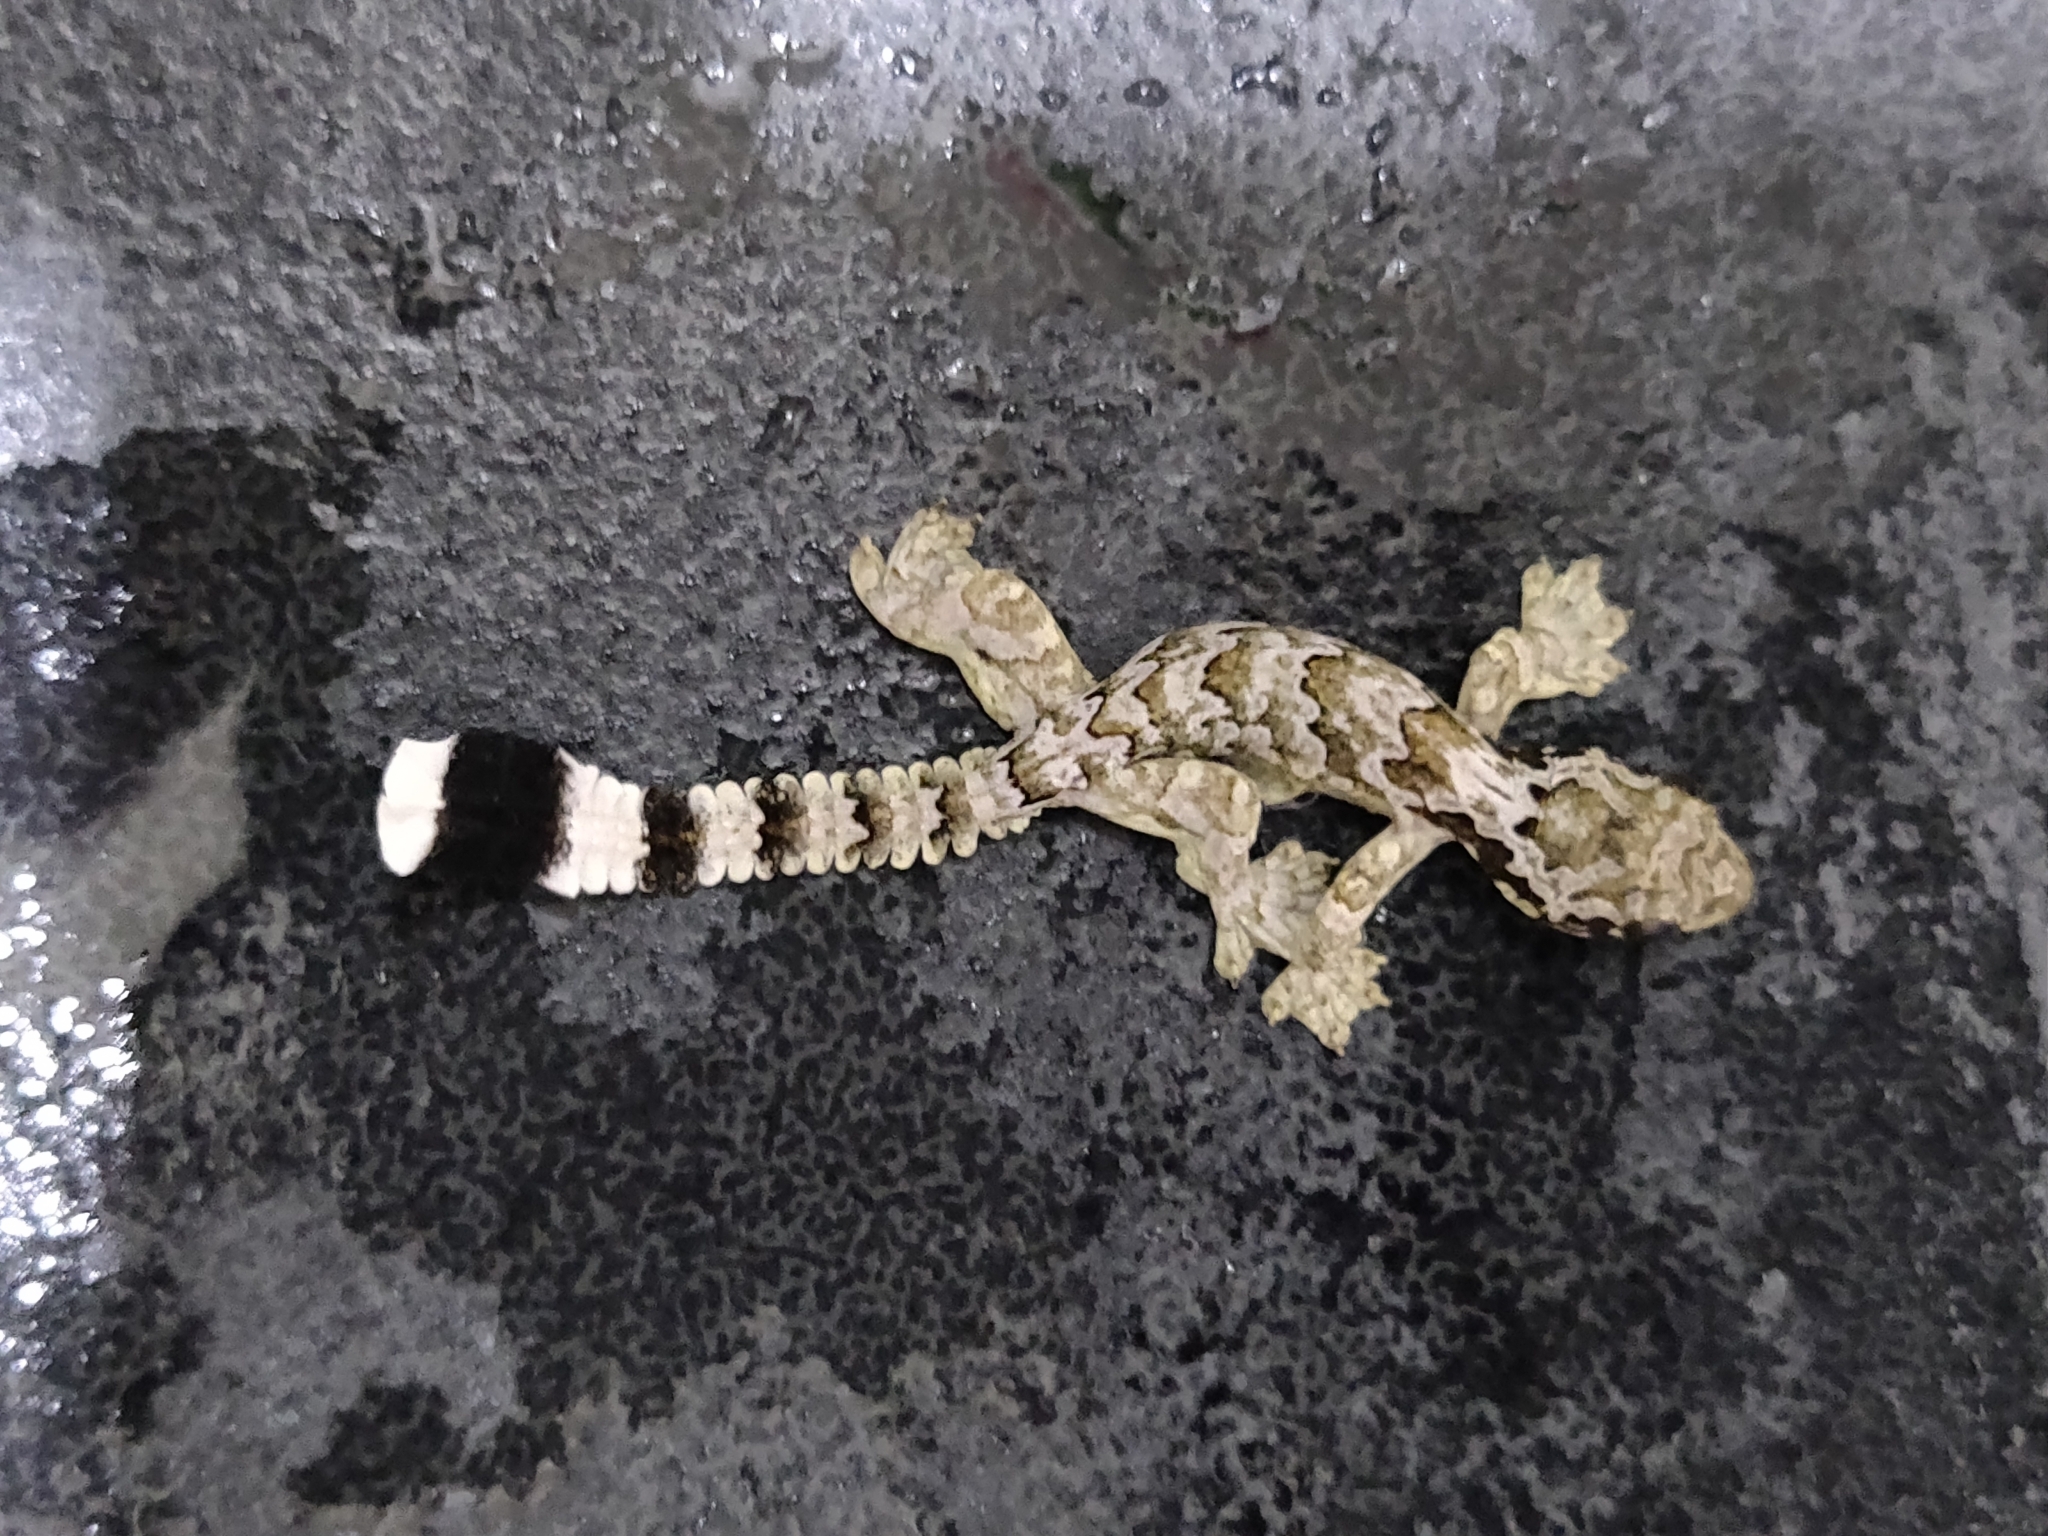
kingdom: Animalia
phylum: Chordata
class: Squamata
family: Gekkonidae
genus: Gekko
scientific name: Gekko kuhli
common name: Gliding gecko
